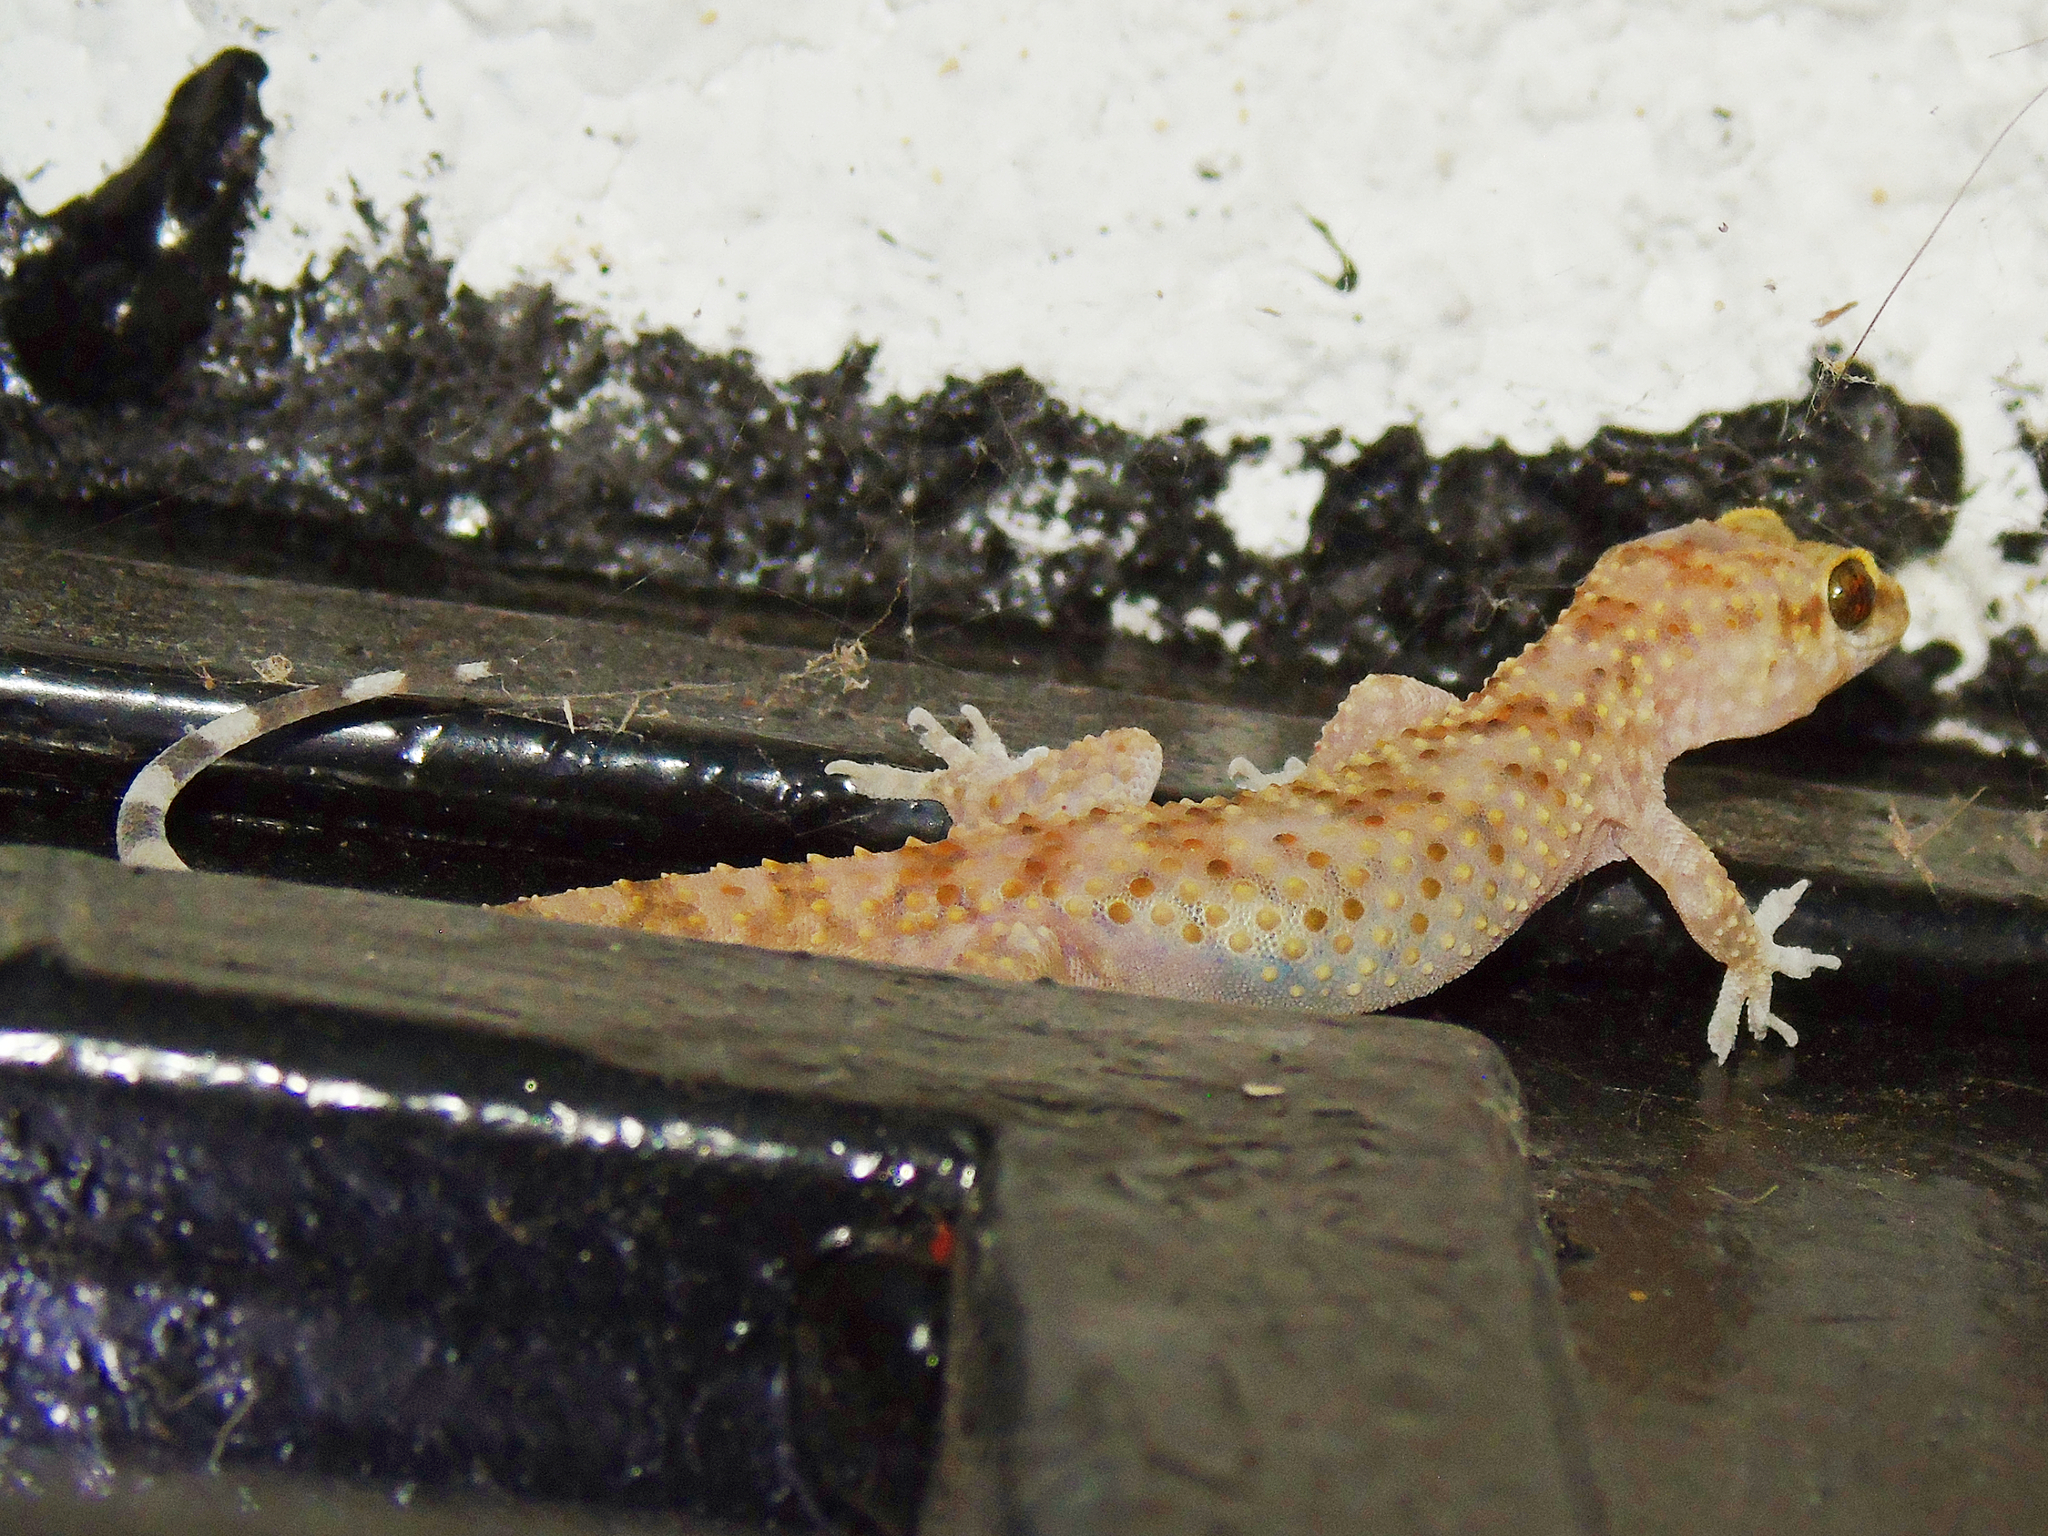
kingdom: Animalia
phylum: Chordata
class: Squamata
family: Gekkonidae
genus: Hemidactylus
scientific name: Hemidactylus turcicus
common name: Turkish gecko
